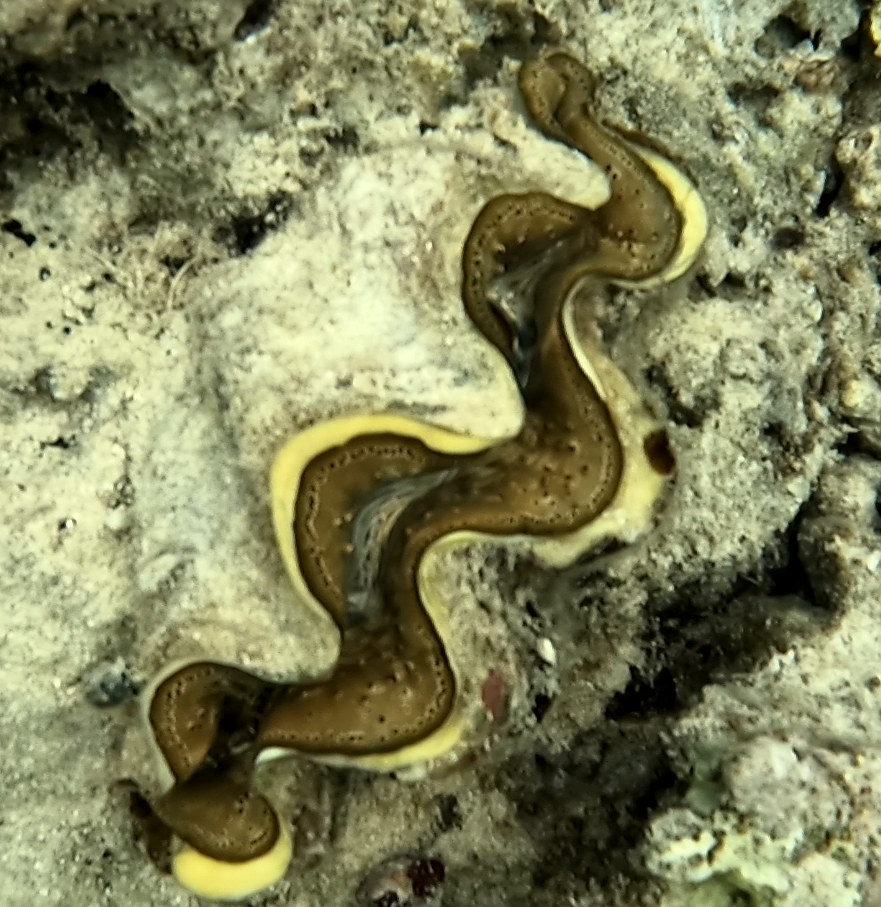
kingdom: Animalia
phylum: Mollusca
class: Bivalvia
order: Cardiida
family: Cardiidae
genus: Tridacna
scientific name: Tridacna maxima
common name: Small giant clam
